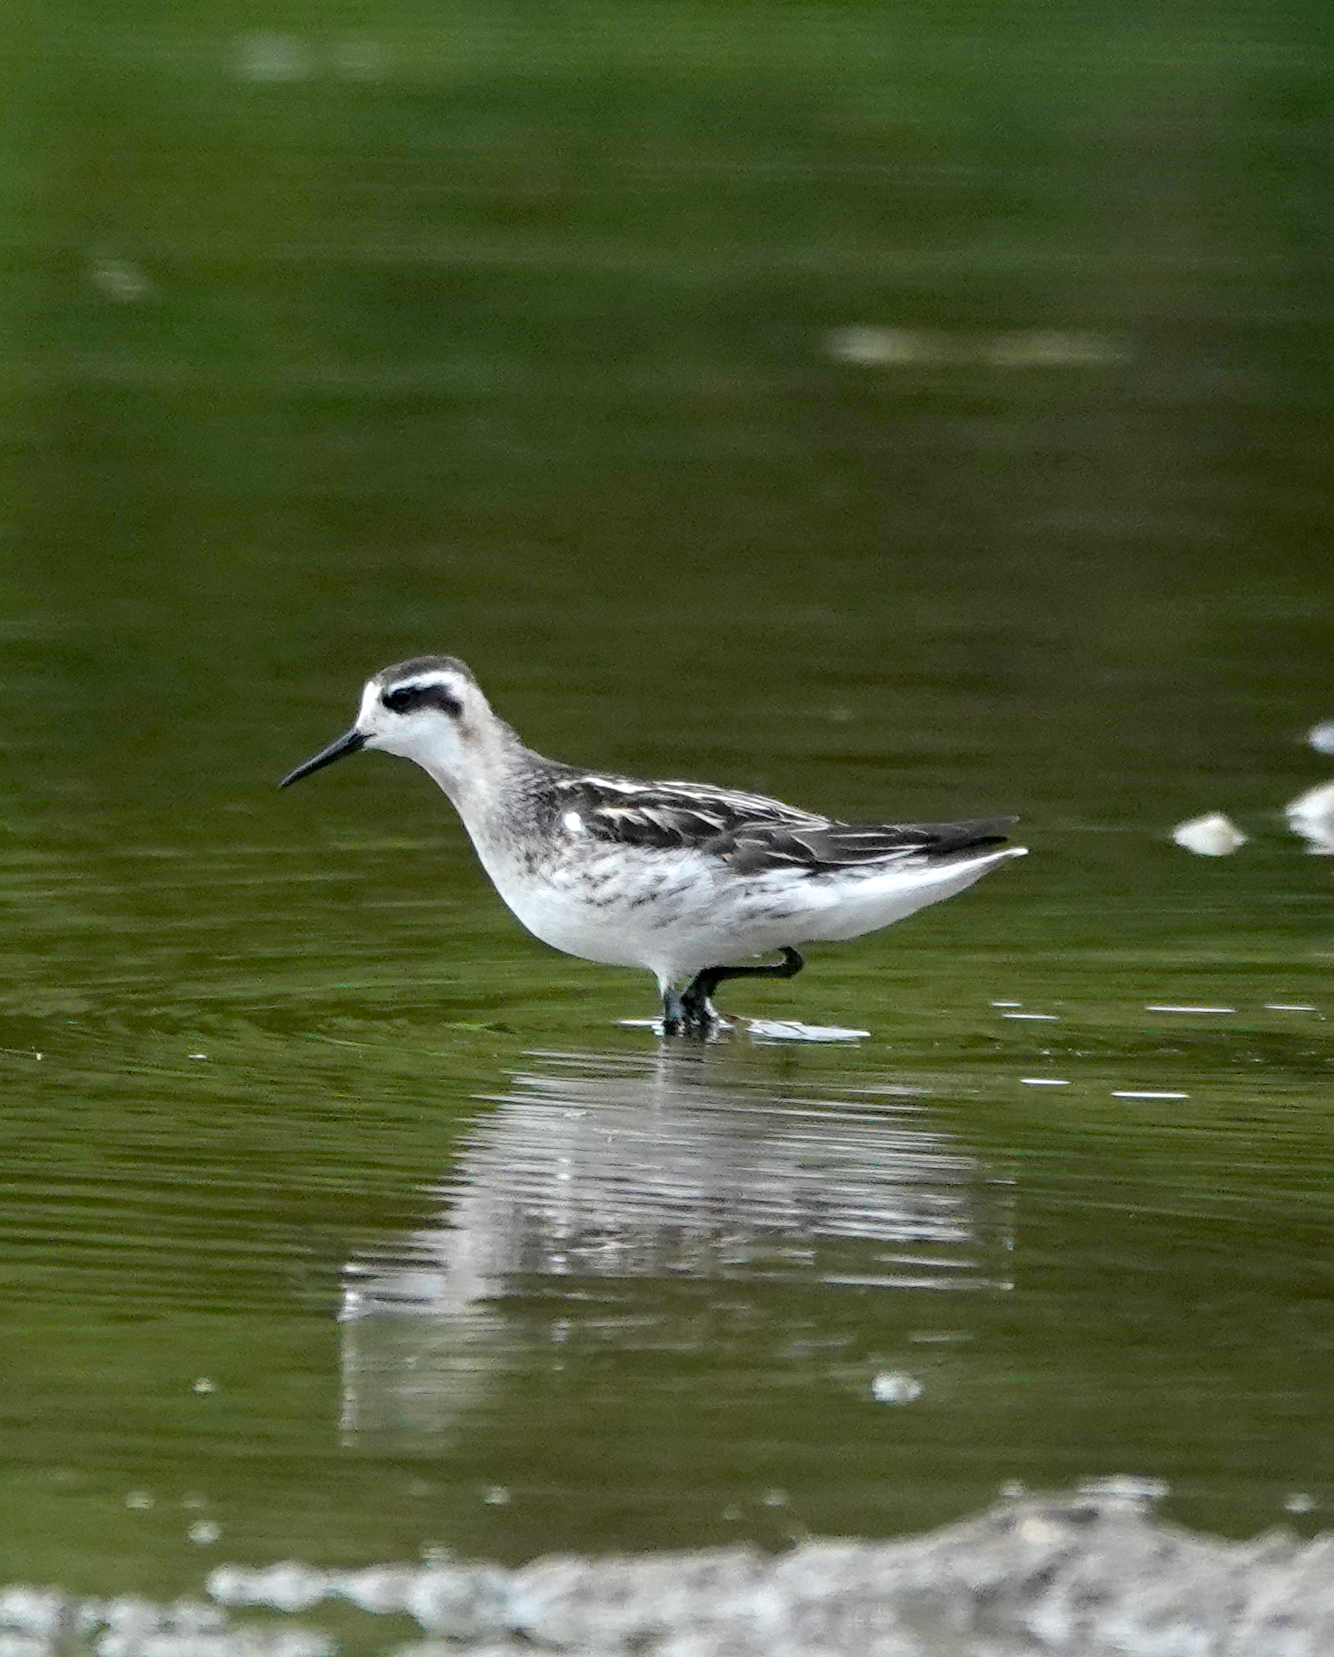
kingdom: Animalia
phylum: Chordata
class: Aves
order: Charadriiformes
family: Scolopacidae
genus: Phalaropus
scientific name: Phalaropus lobatus
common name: Red-necked phalarope
